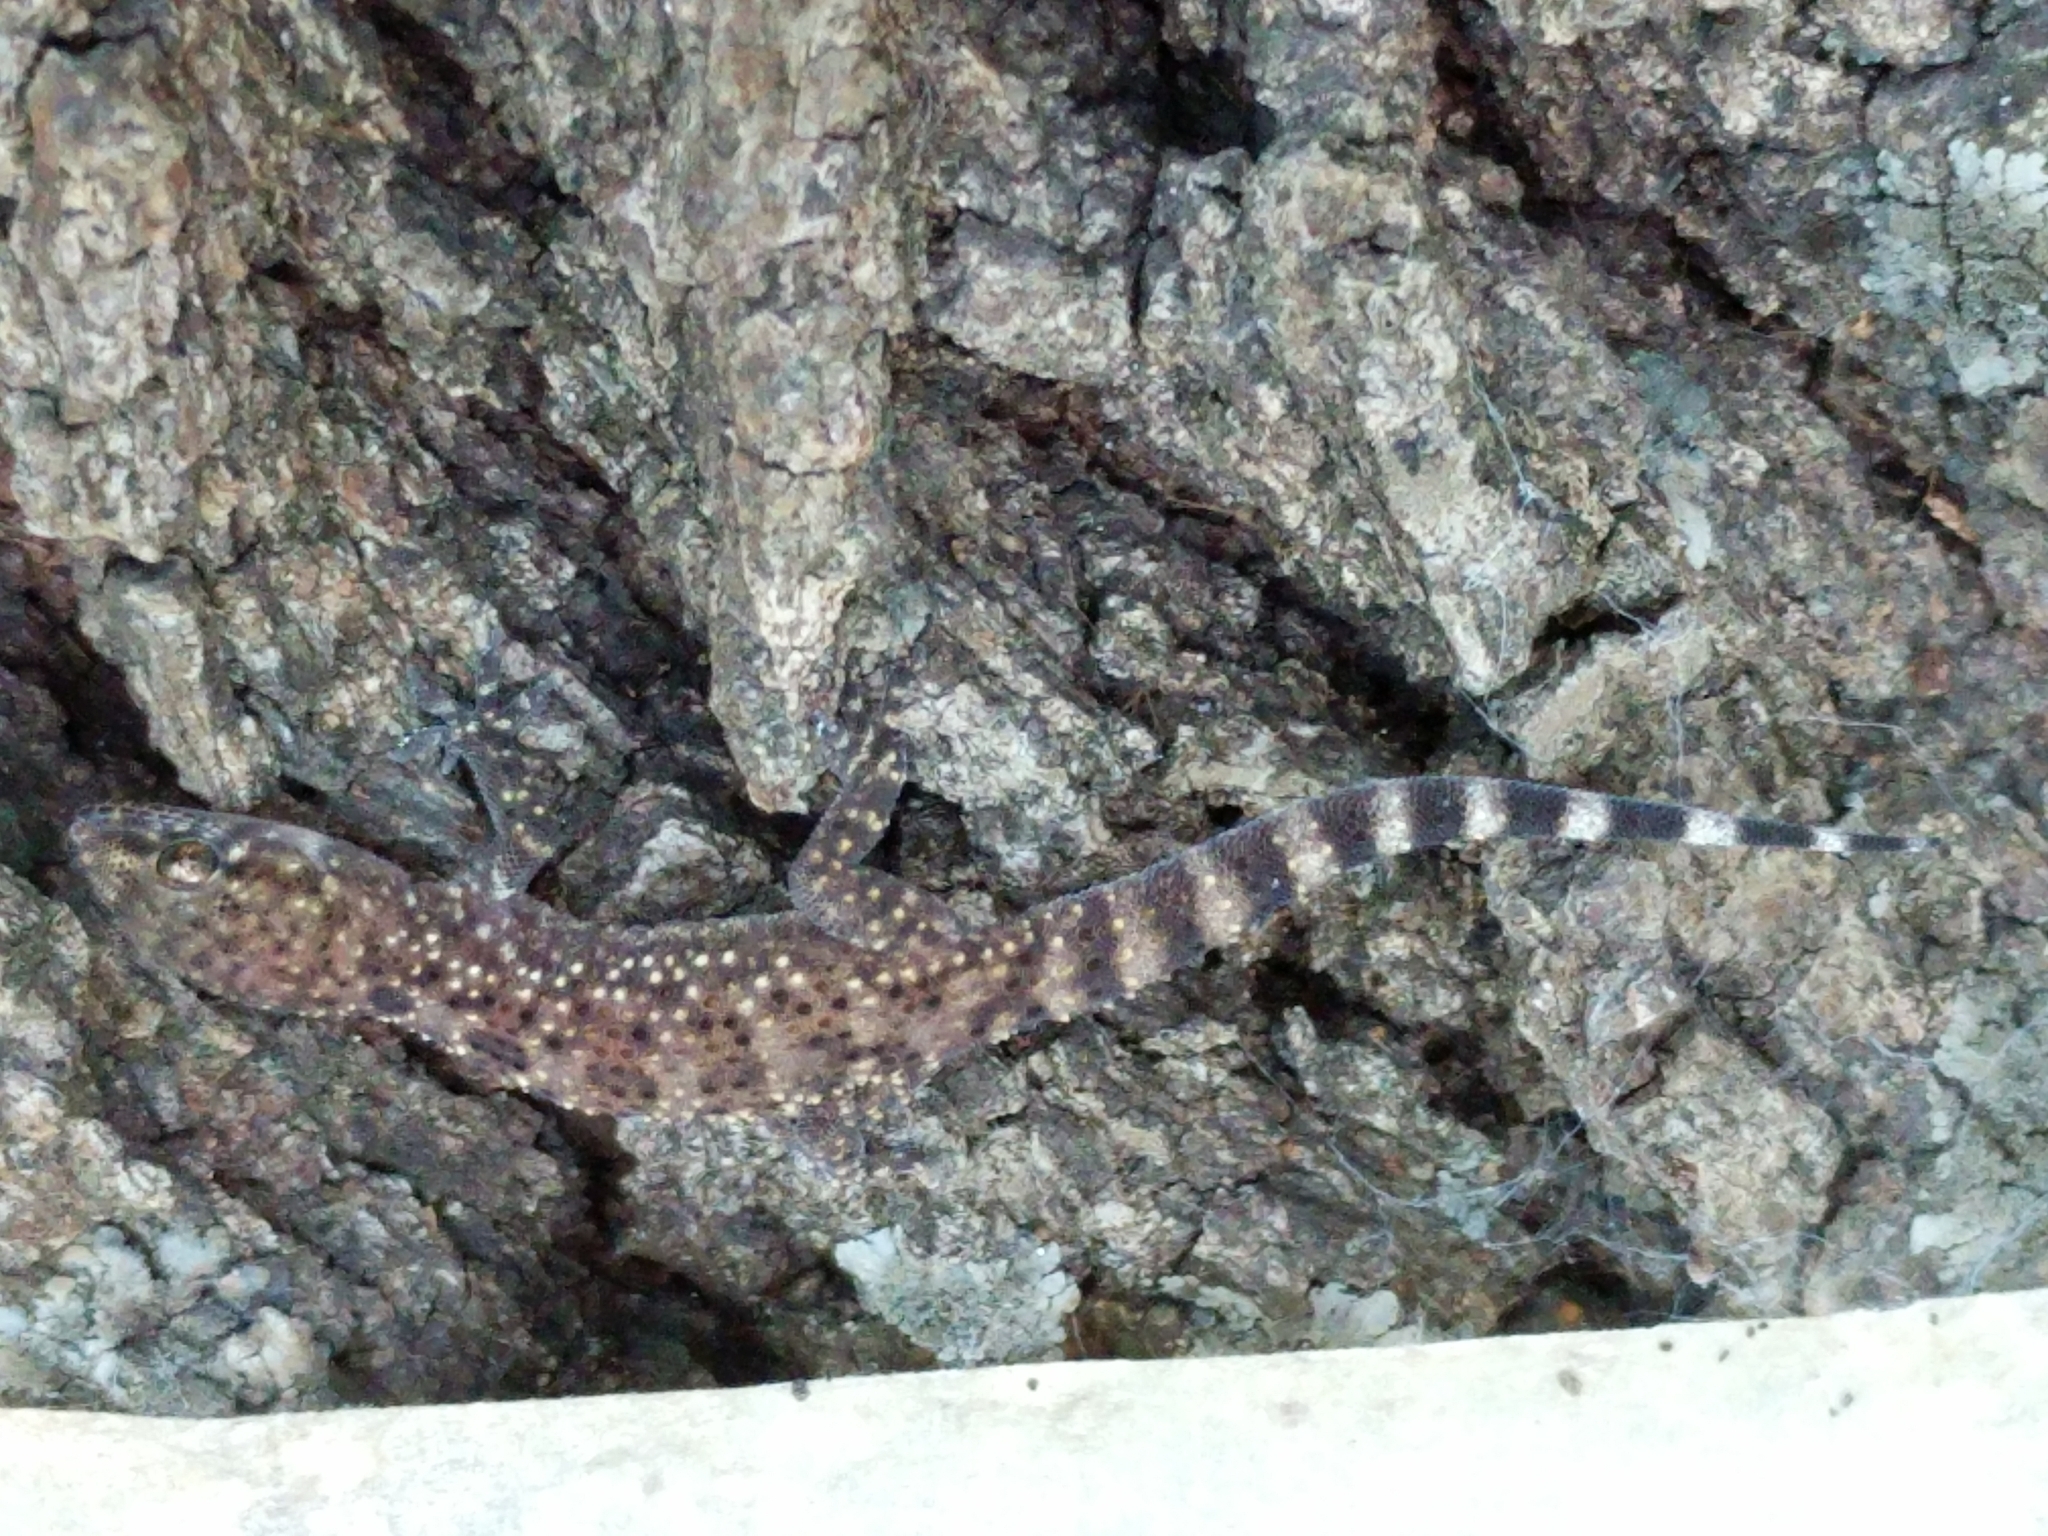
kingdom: Animalia
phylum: Chordata
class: Squamata
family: Gekkonidae
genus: Hemidactylus
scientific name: Hemidactylus turcicus
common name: Turkish gecko
